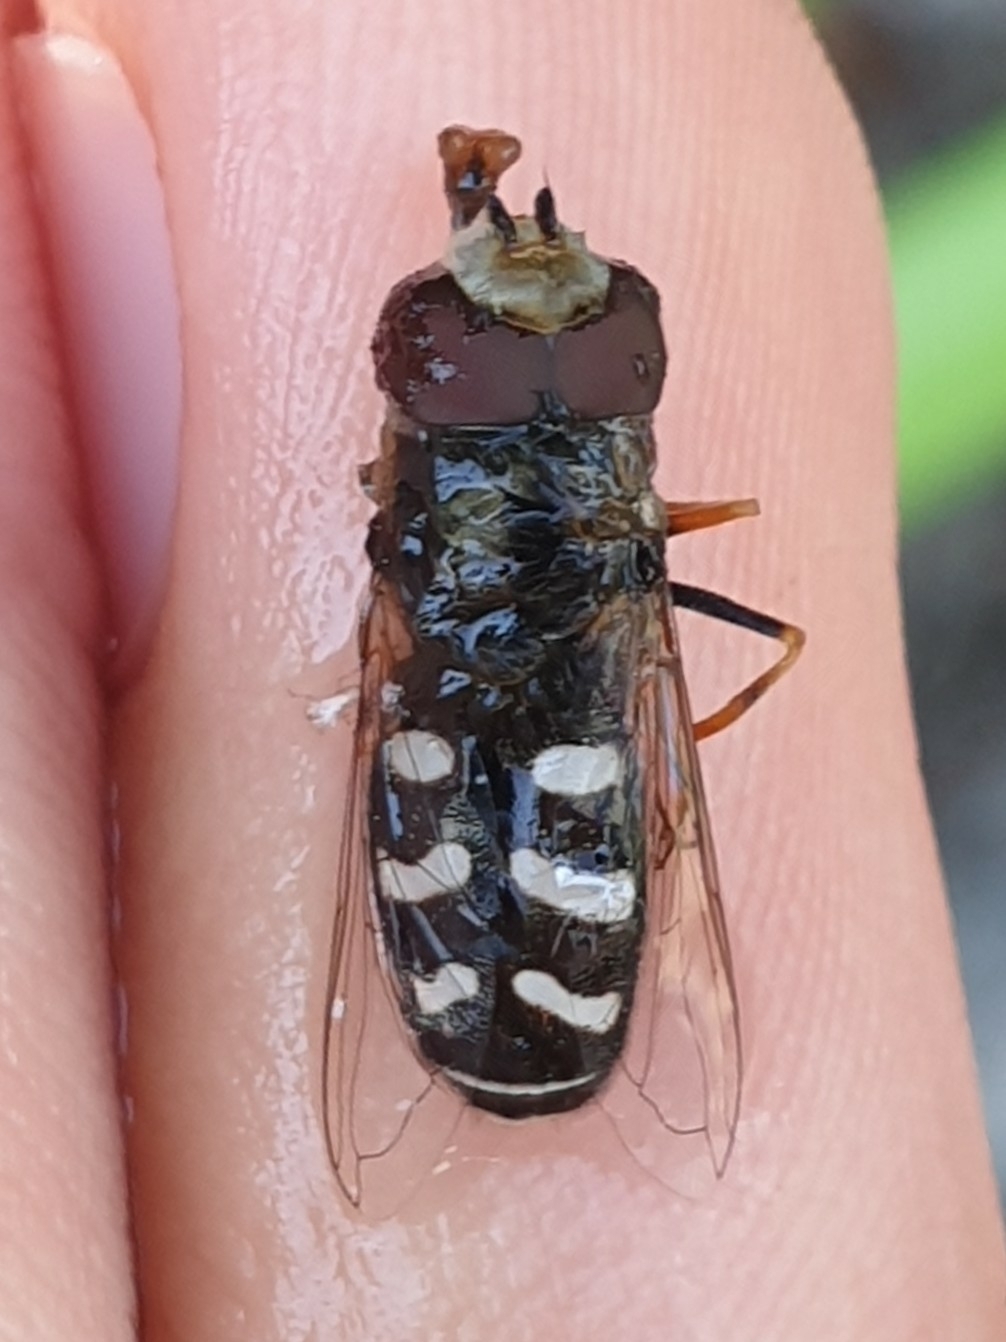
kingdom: Animalia
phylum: Arthropoda
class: Insecta
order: Diptera
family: Syrphidae
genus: Scaeva
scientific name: Scaeva pyrastri
